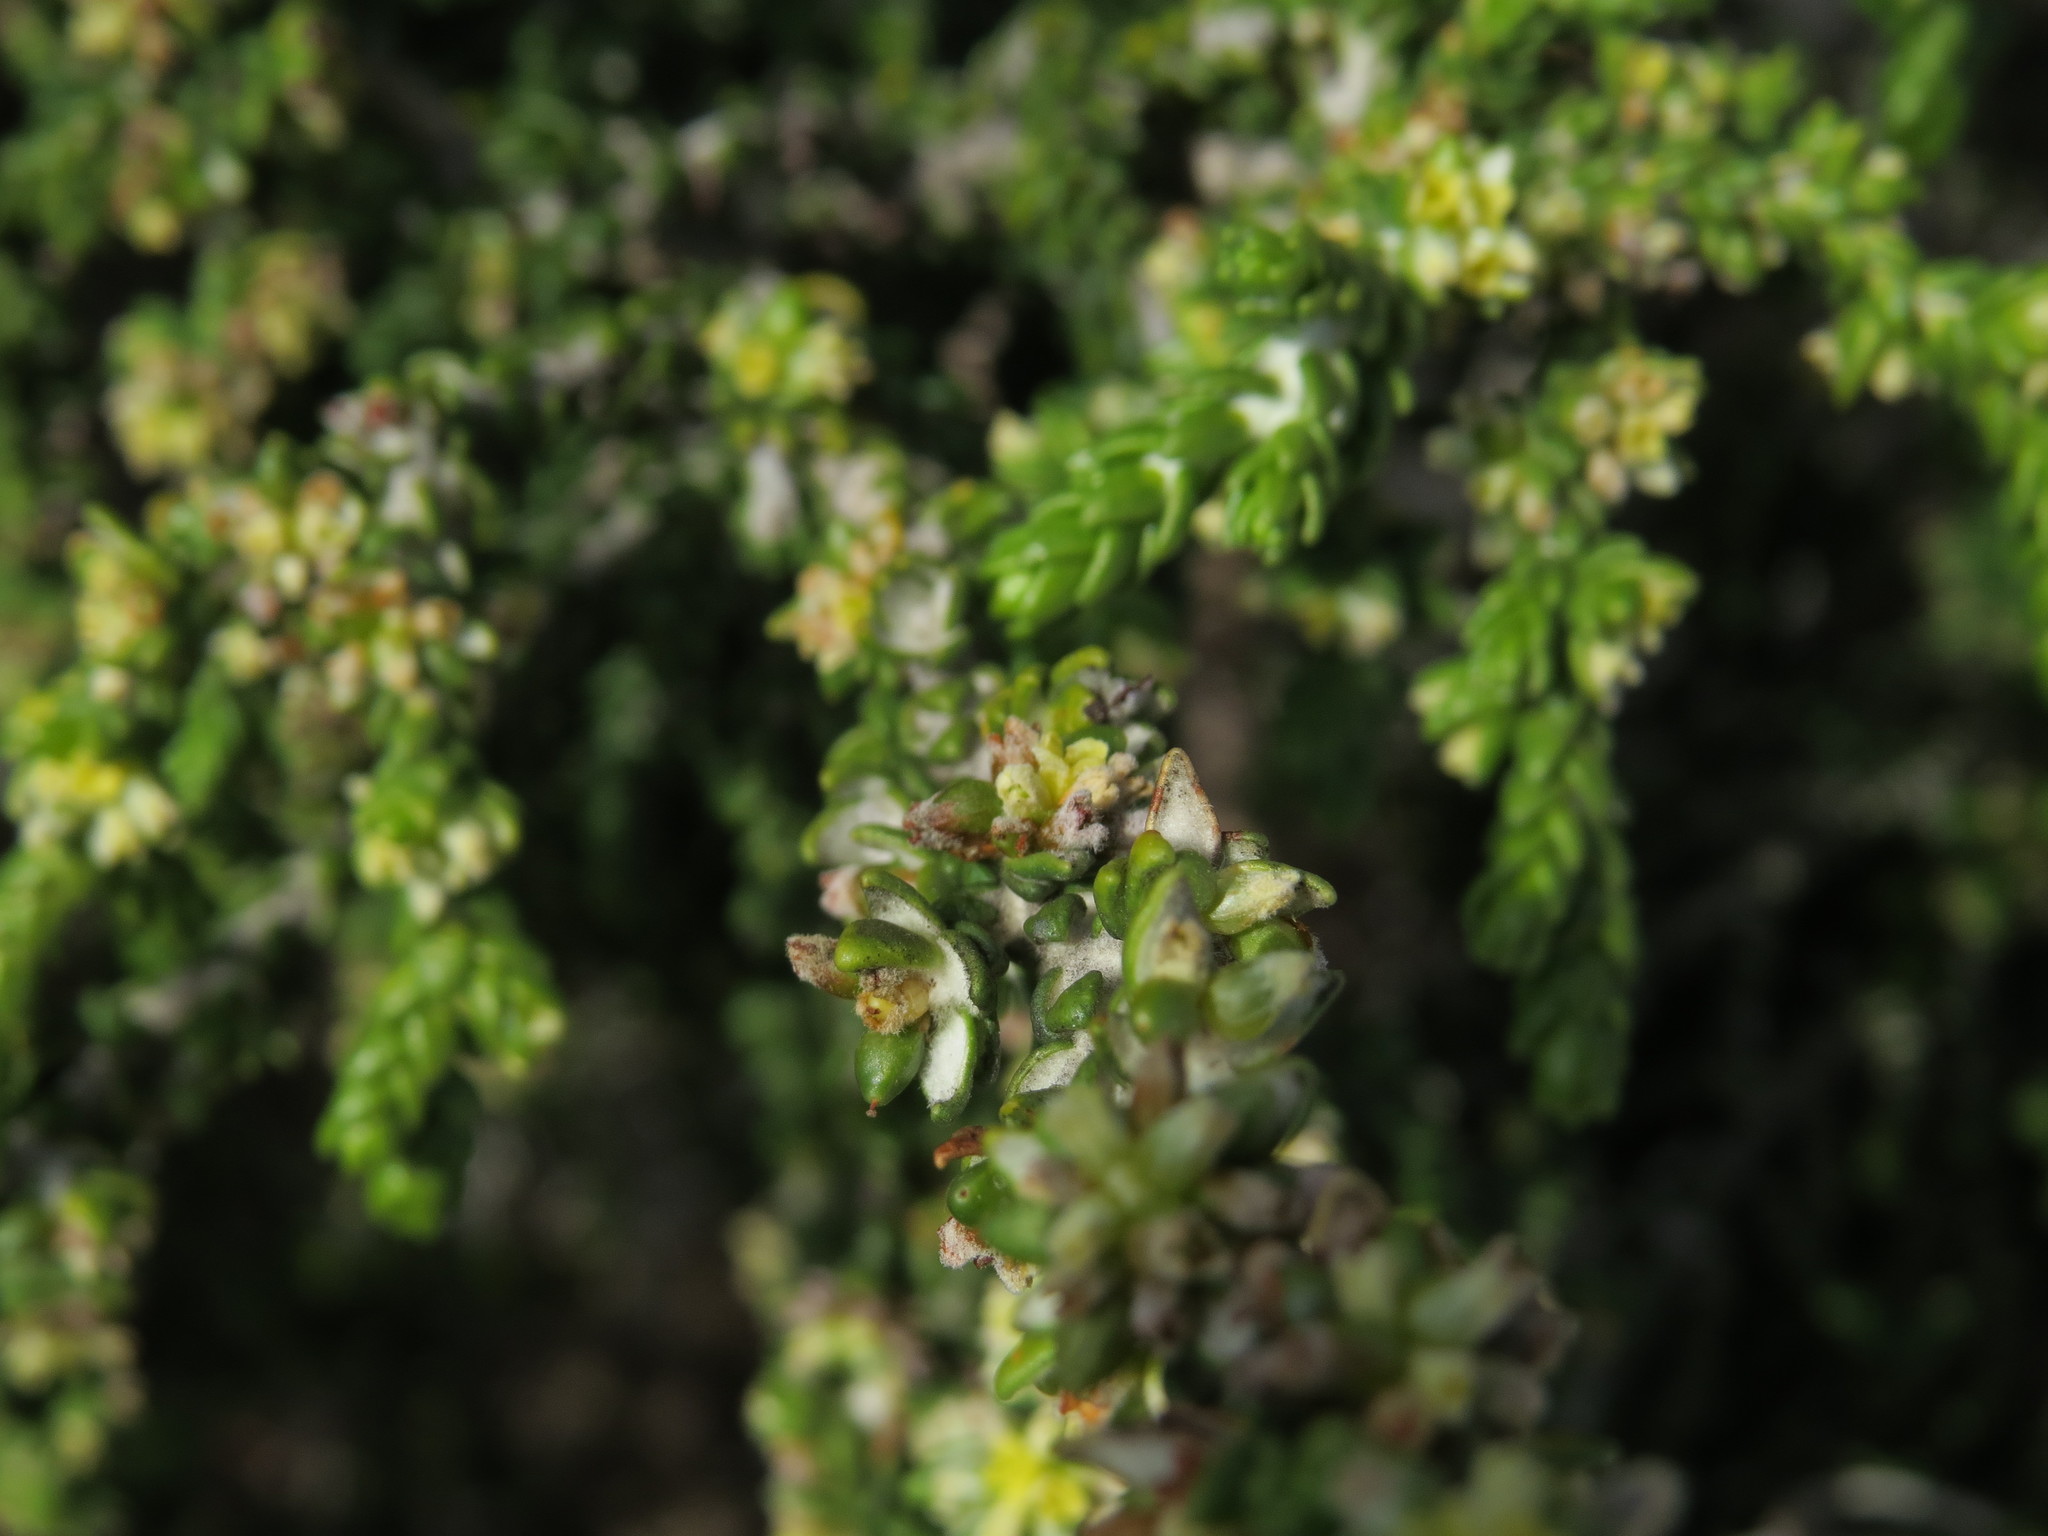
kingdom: Plantae
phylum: Tracheophyta
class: Magnoliopsida
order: Malvales
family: Thymelaeaceae
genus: Thymelaea
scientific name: Thymelaea hirsuta
